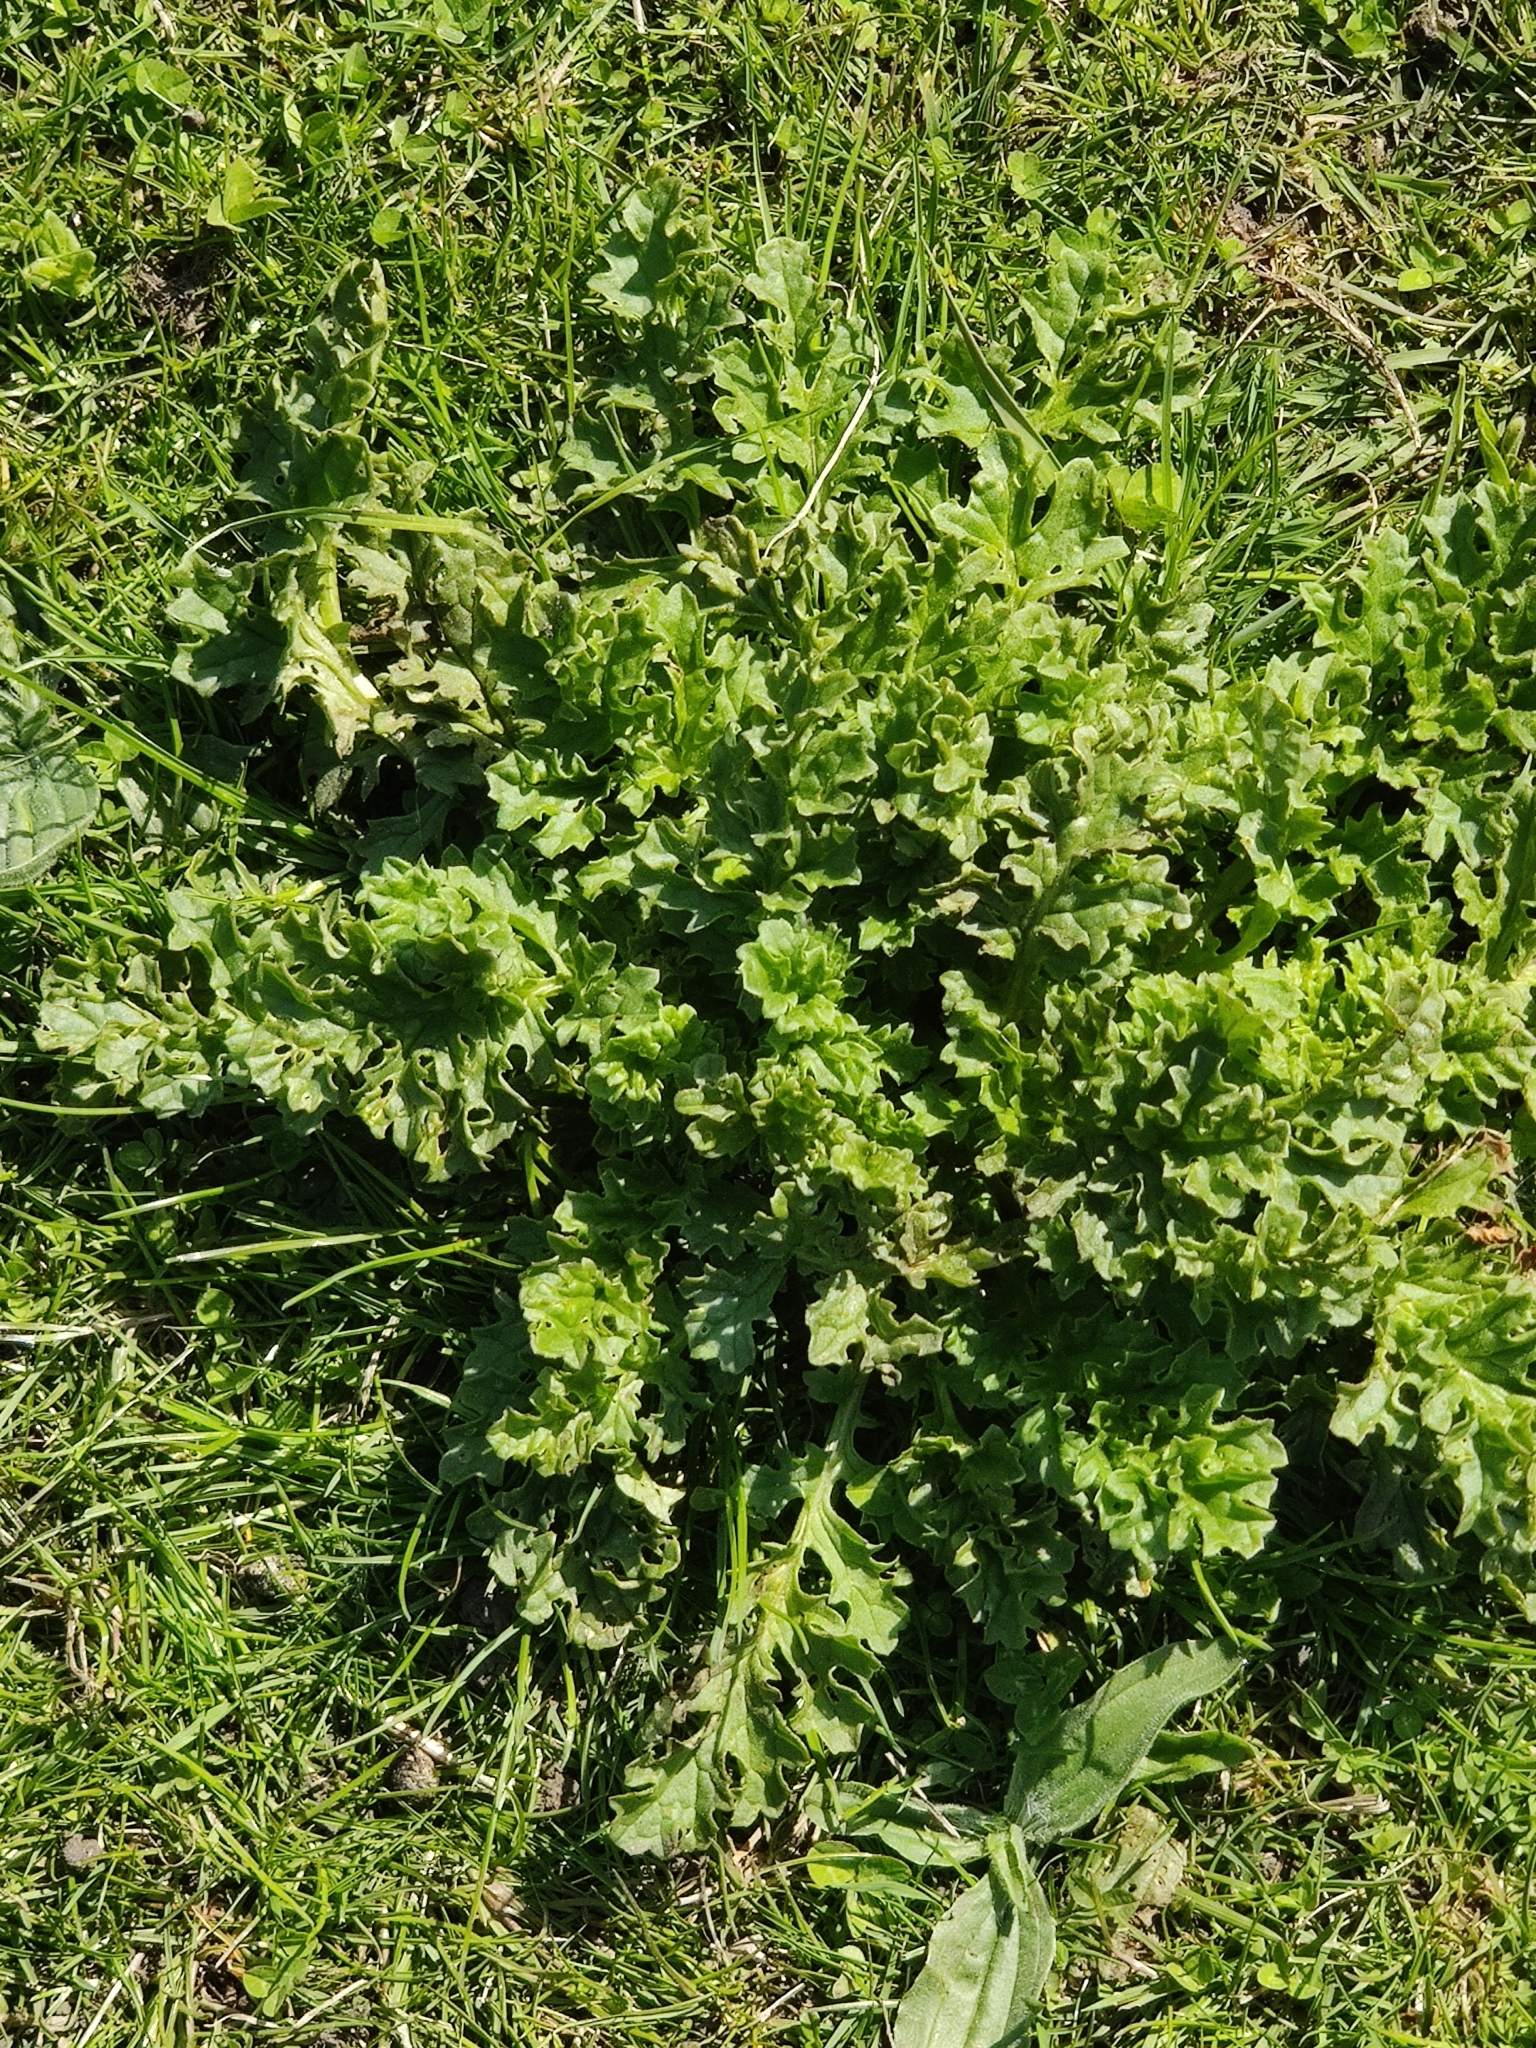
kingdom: Plantae
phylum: Tracheophyta
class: Magnoliopsida
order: Asterales
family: Asteraceae
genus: Jacobaea
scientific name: Jacobaea vulgaris
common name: Stinking willie
